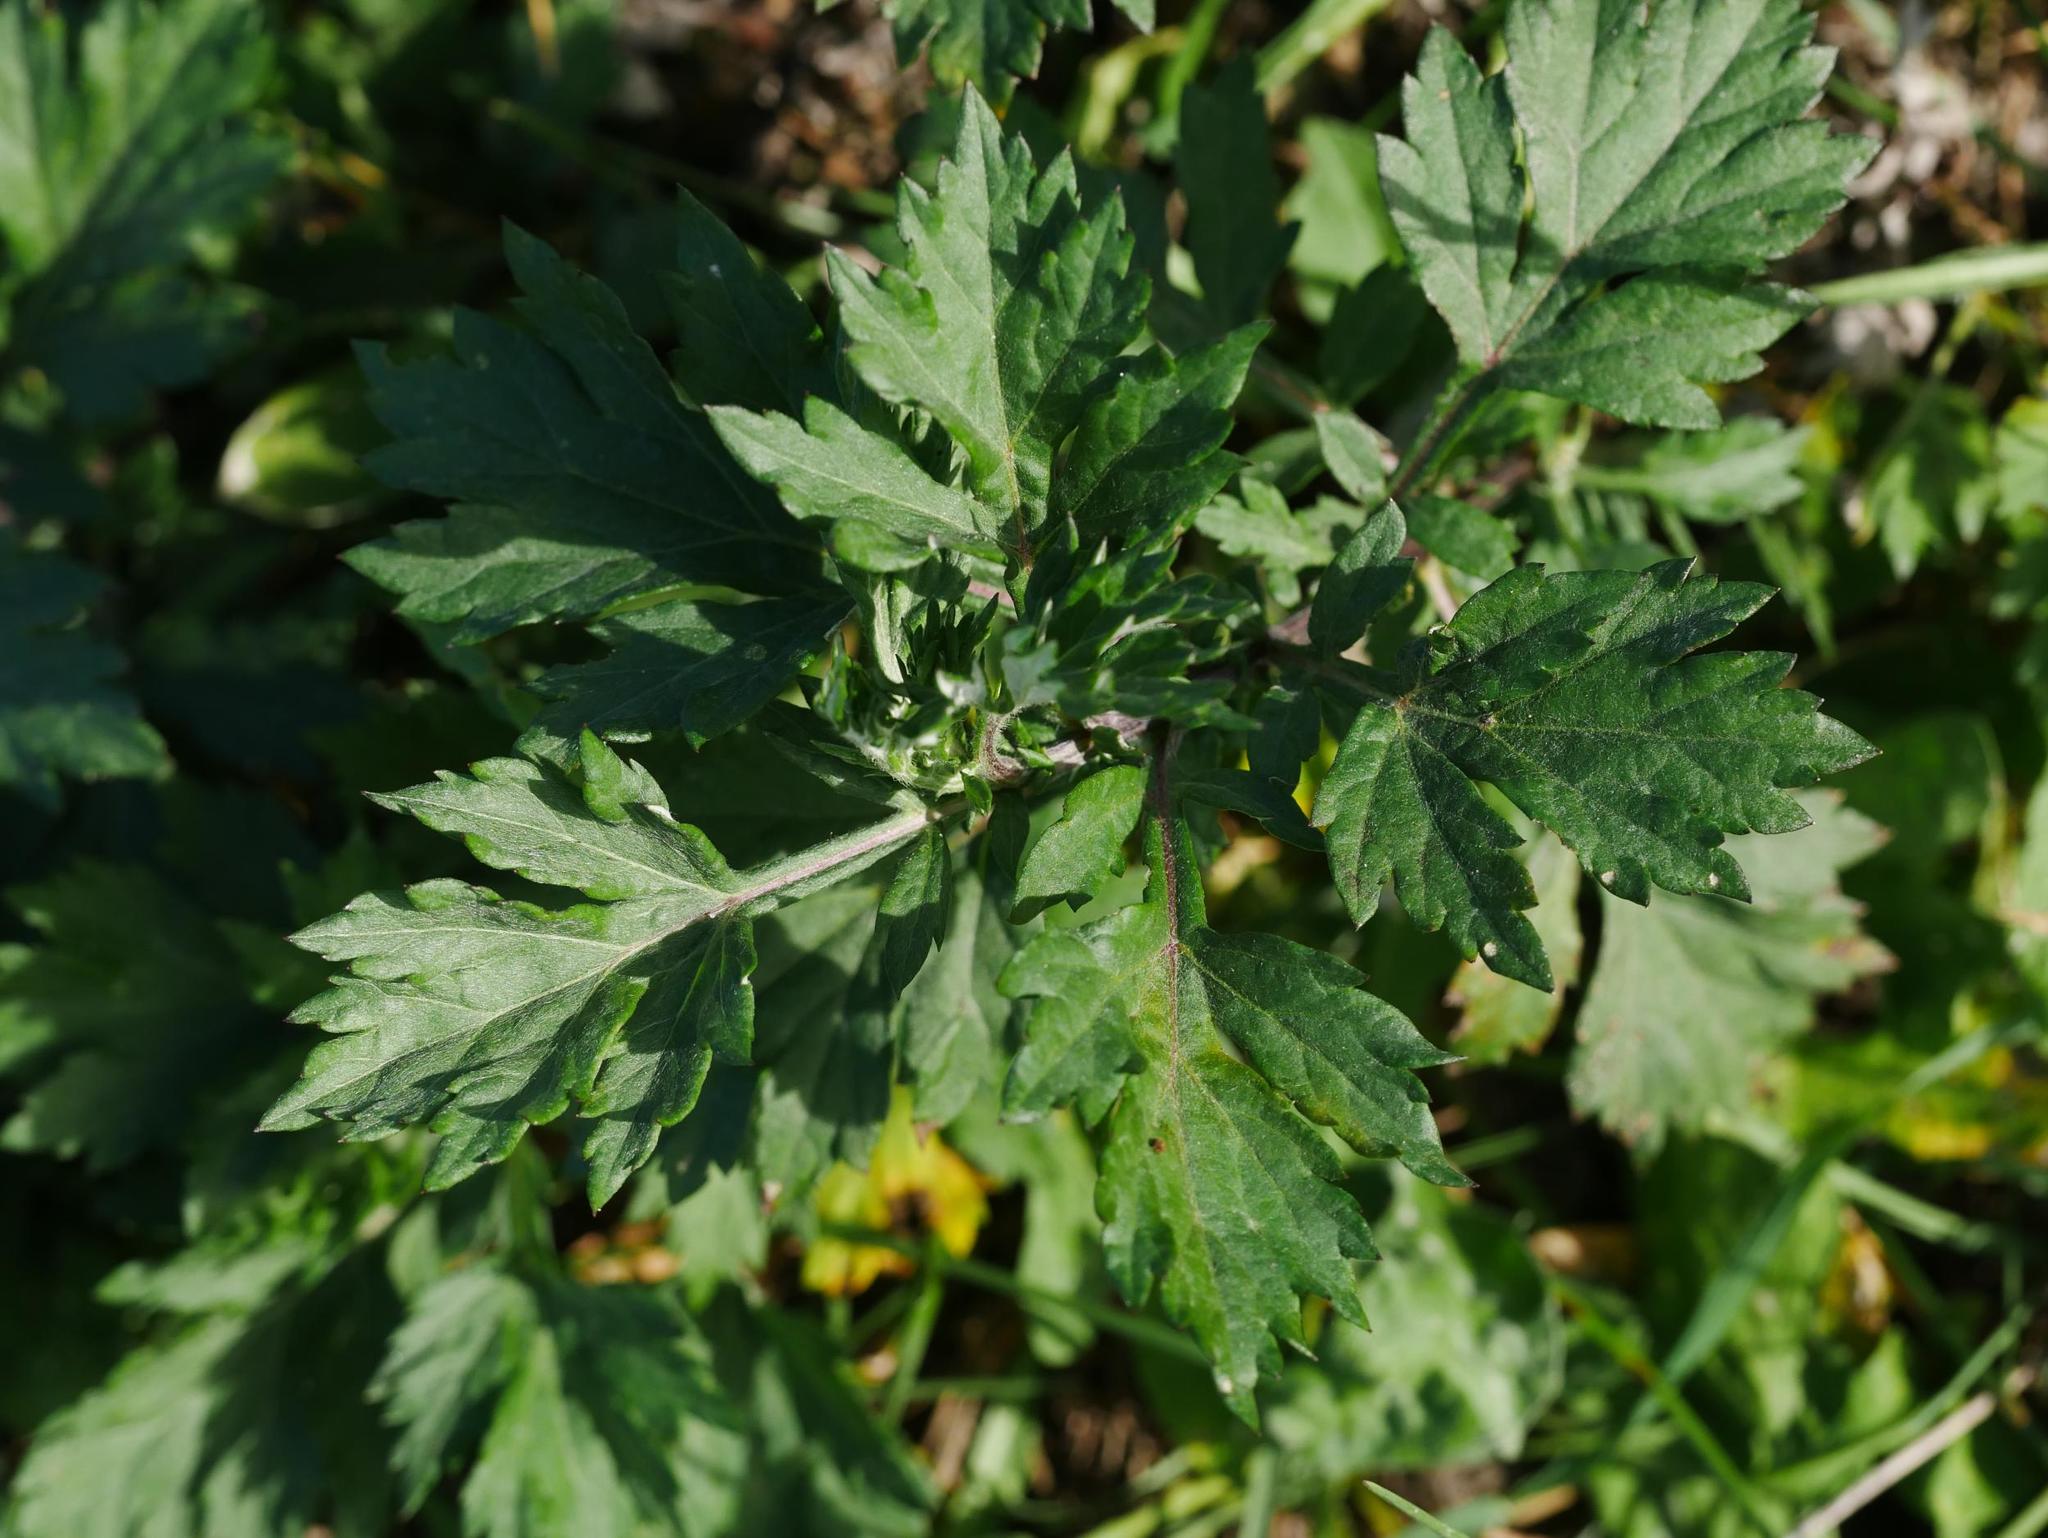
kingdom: Plantae
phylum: Tracheophyta
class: Magnoliopsida
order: Asterales
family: Asteraceae
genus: Artemisia
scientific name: Artemisia vulgaris
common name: Mugwort
